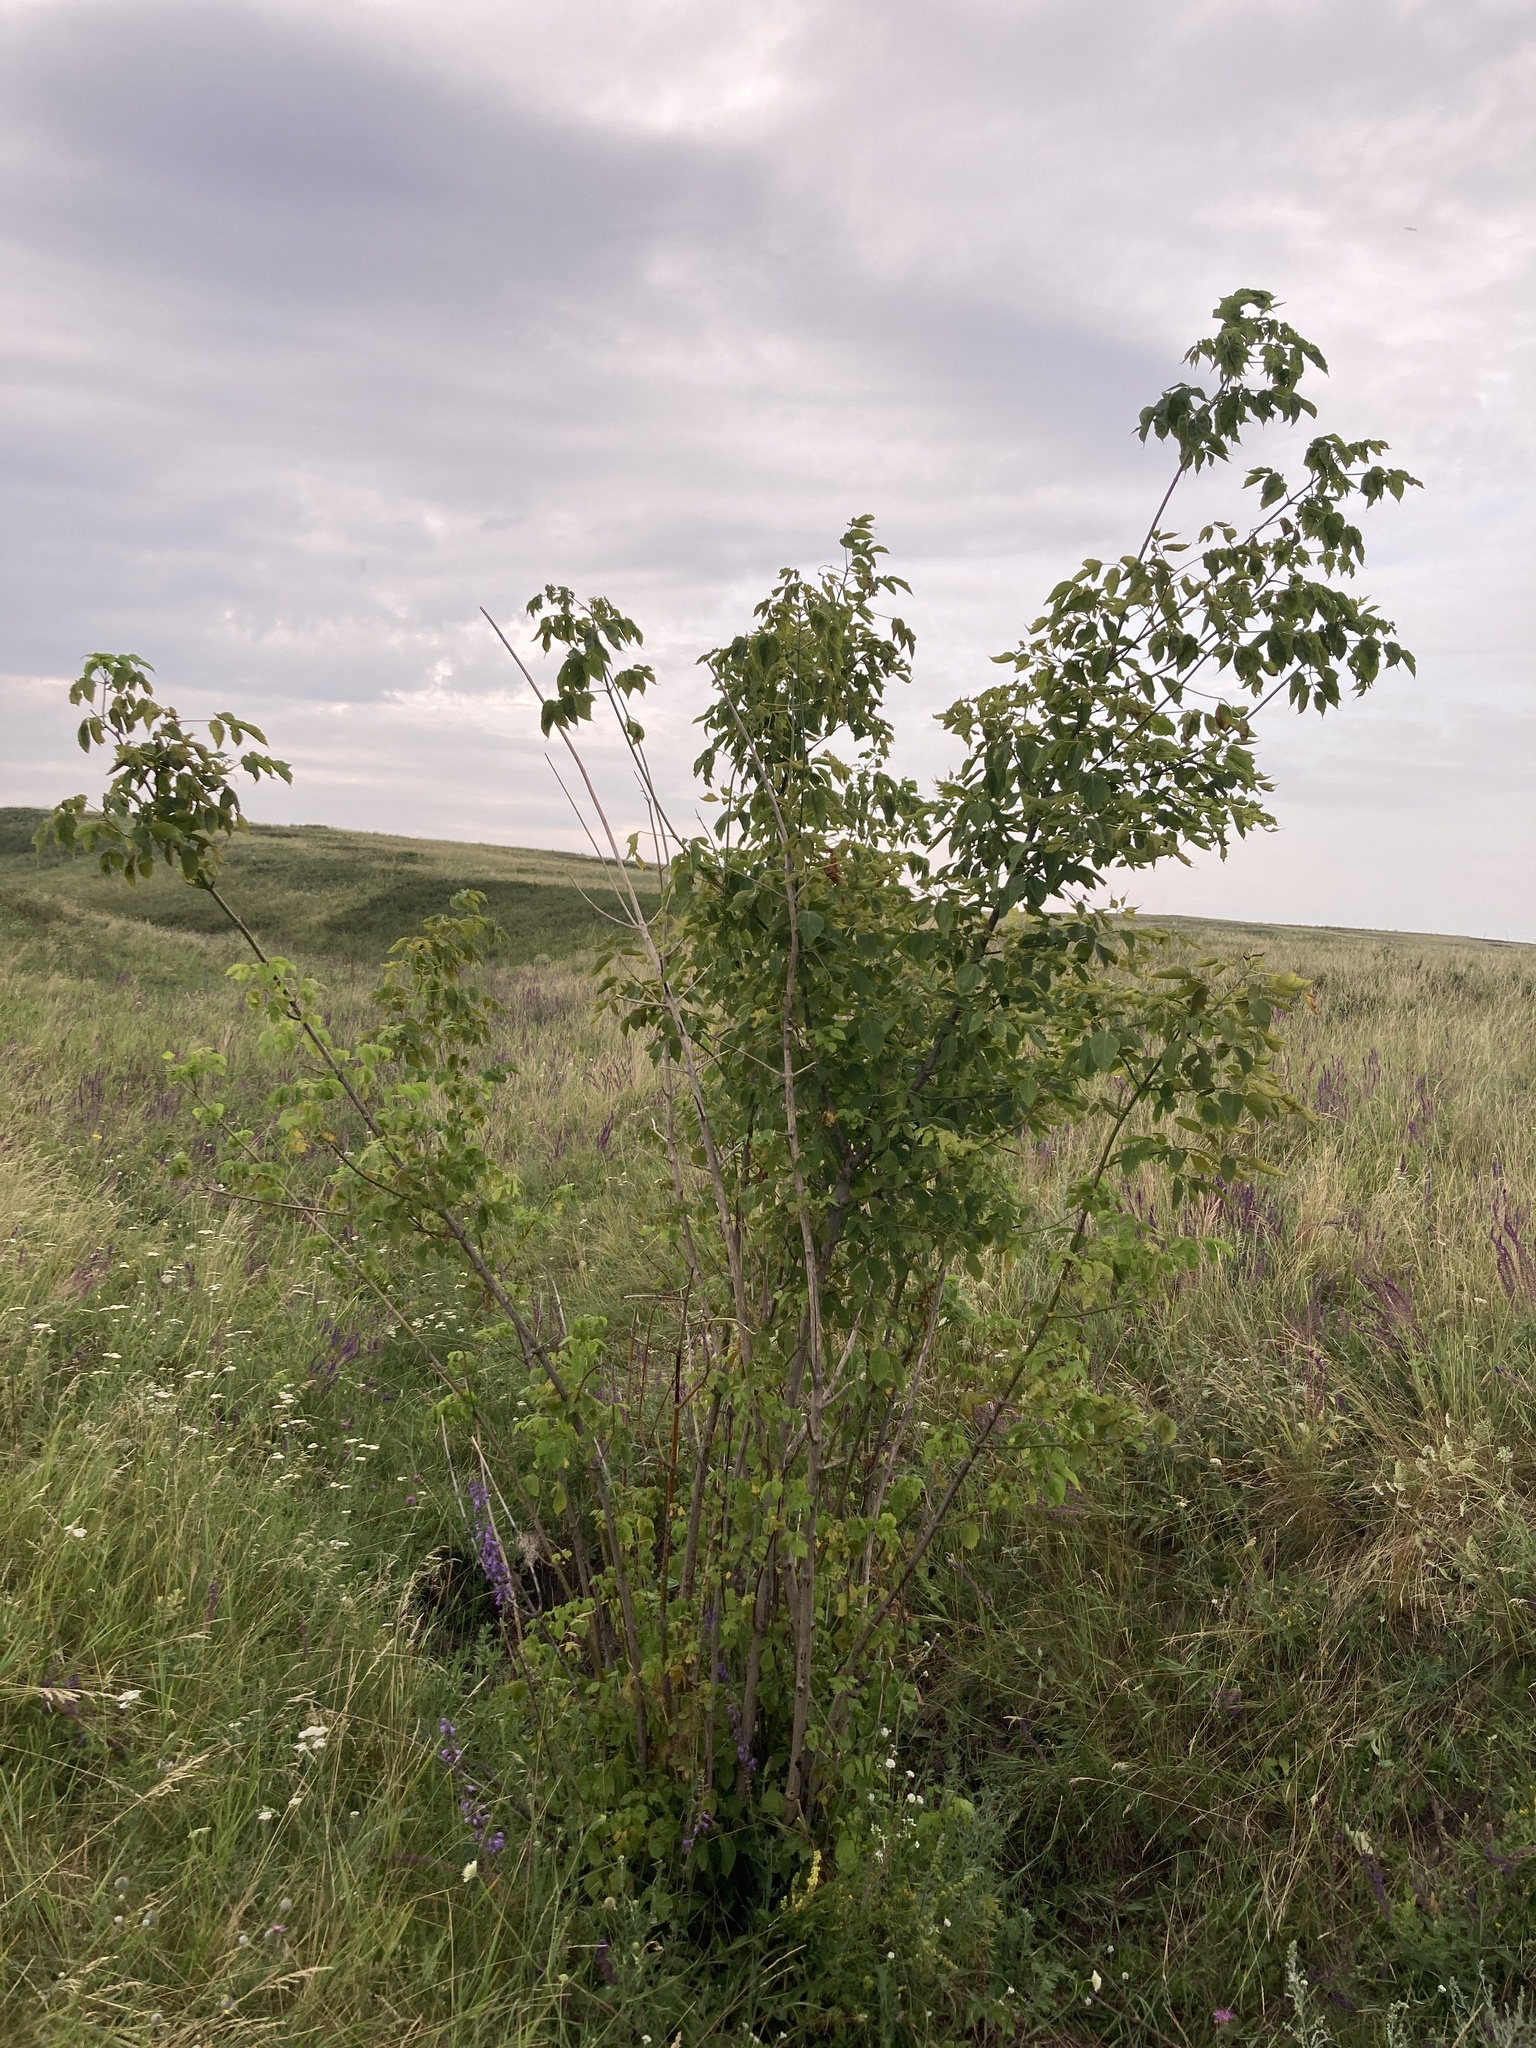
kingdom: Plantae
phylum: Tracheophyta
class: Magnoliopsida
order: Sapindales
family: Sapindaceae
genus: Acer
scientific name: Acer negundo
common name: Ashleaf maple
